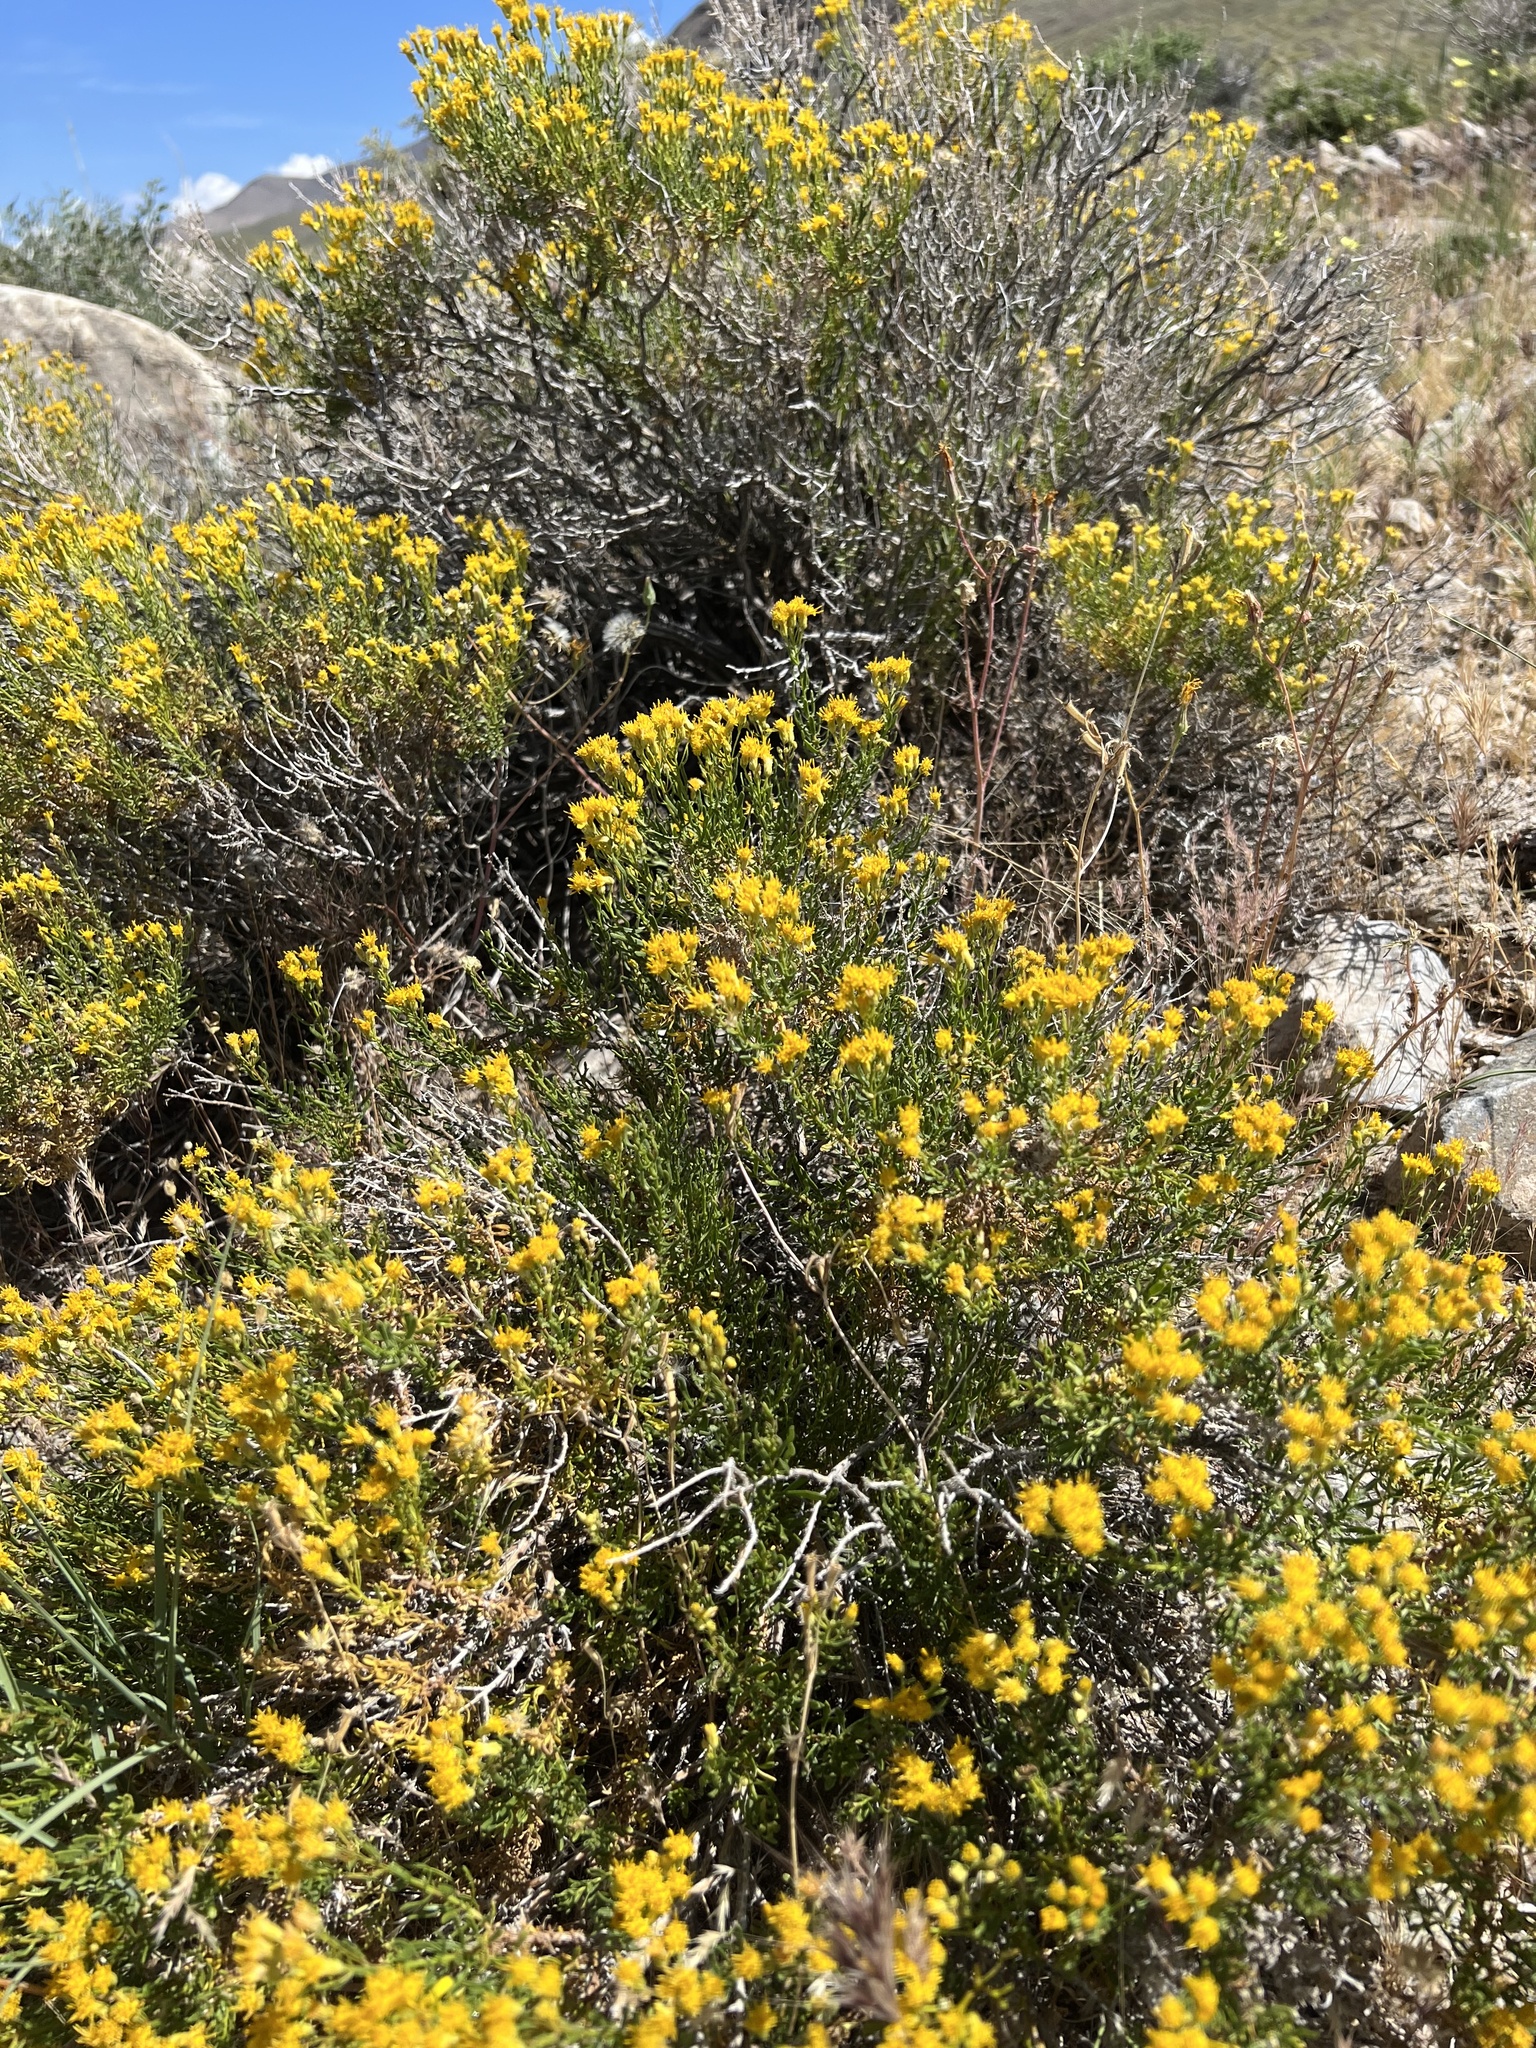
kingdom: Plantae
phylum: Tracheophyta
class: Magnoliopsida
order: Asterales
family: Asteraceae
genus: Ericameria
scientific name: Ericameria cooperi
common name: Cooper's goldenbush
